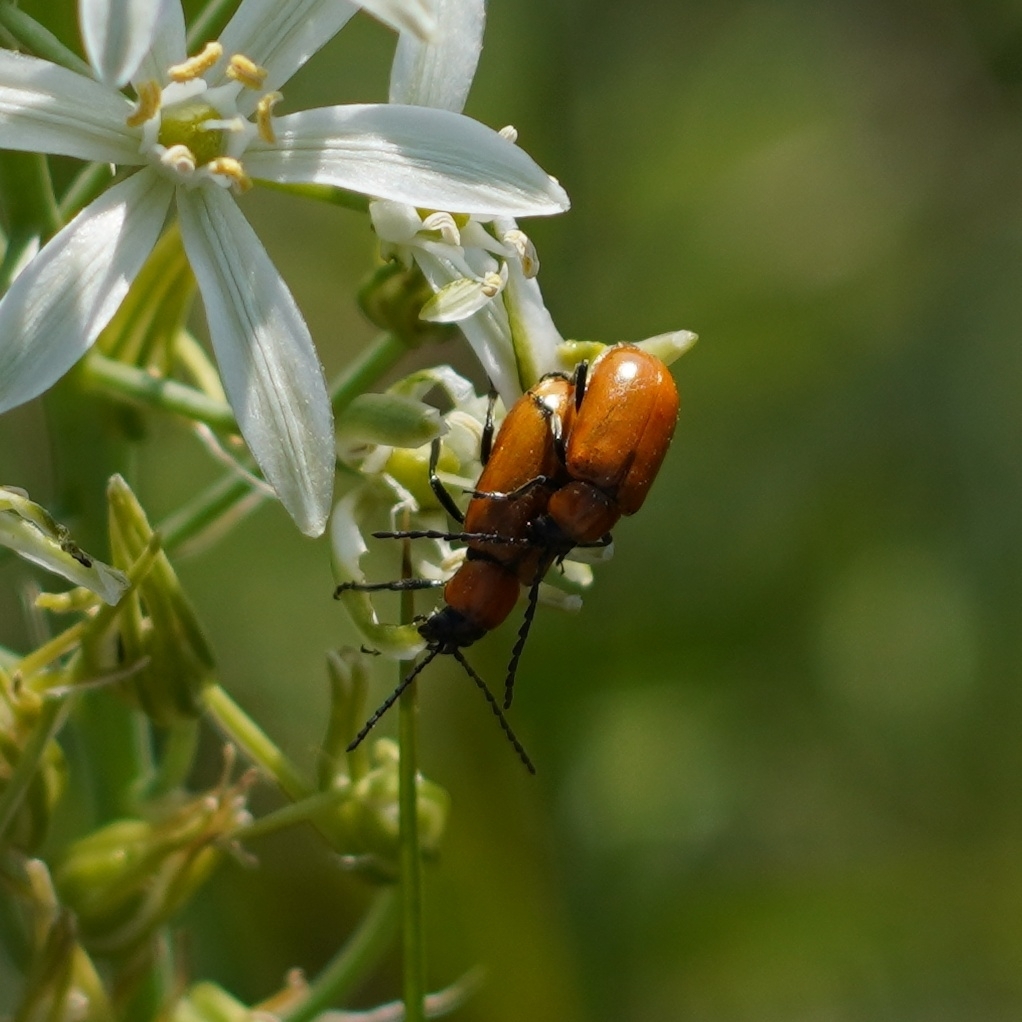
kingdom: Animalia
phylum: Arthropoda
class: Insecta
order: Coleoptera
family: Chrysomelidae
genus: Exosoma
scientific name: Exosoma lusitanicum
